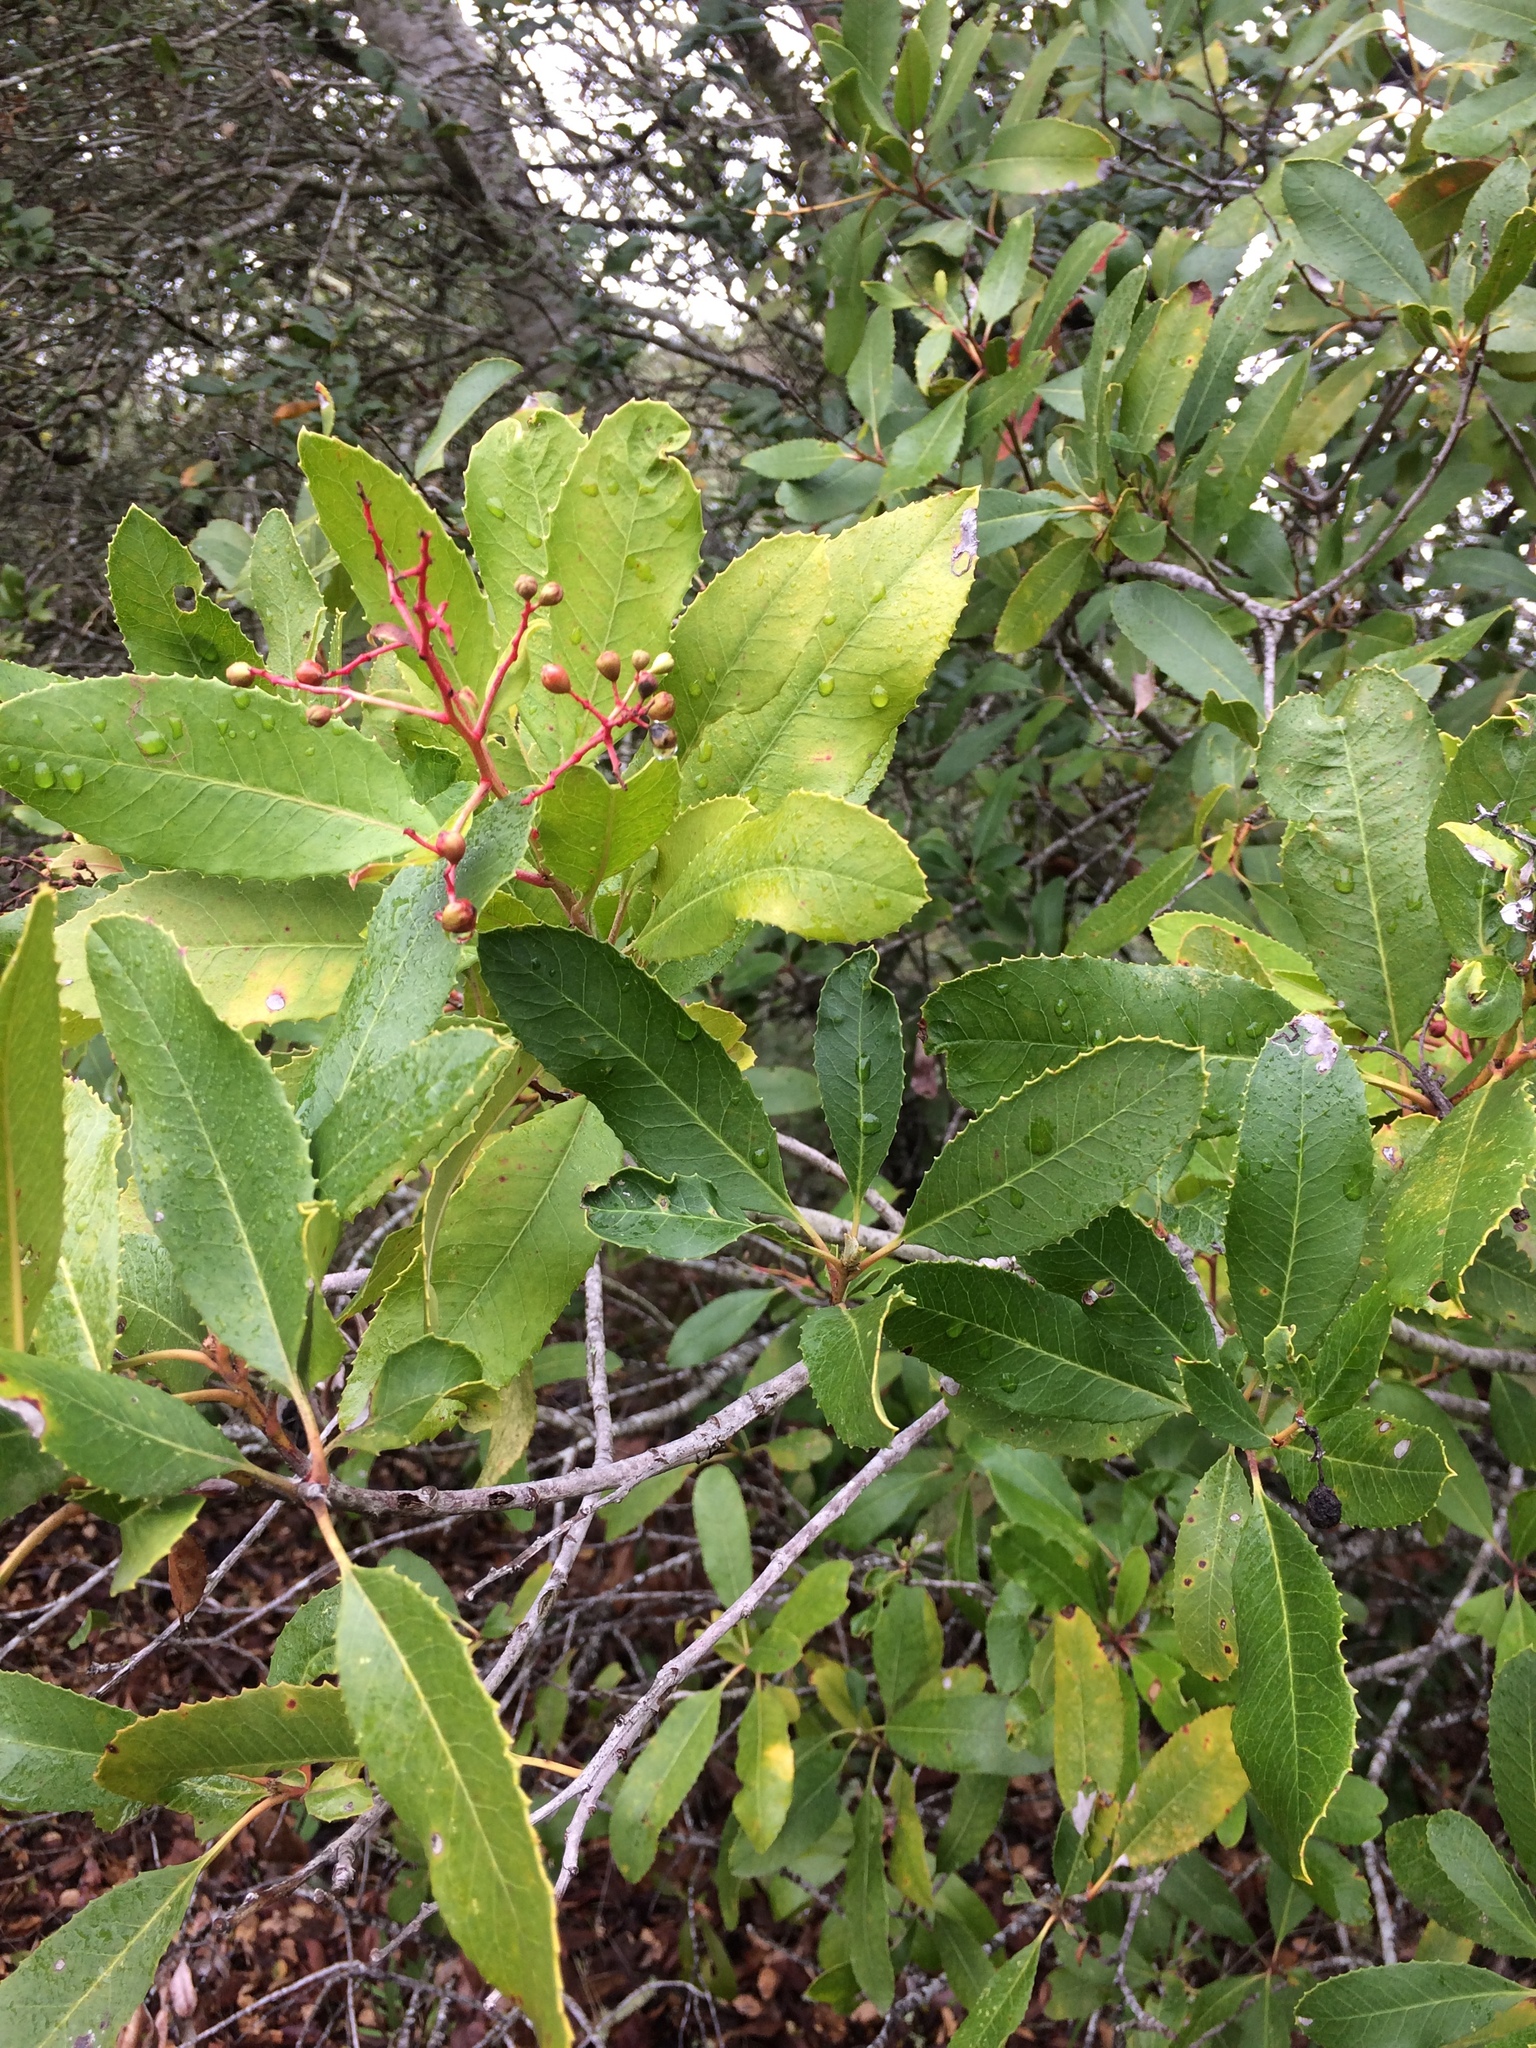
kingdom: Plantae
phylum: Tracheophyta
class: Magnoliopsida
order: Rosales
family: Rosaceae
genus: Heteromeles
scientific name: Heteromeles arbutifolia
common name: California-holly
